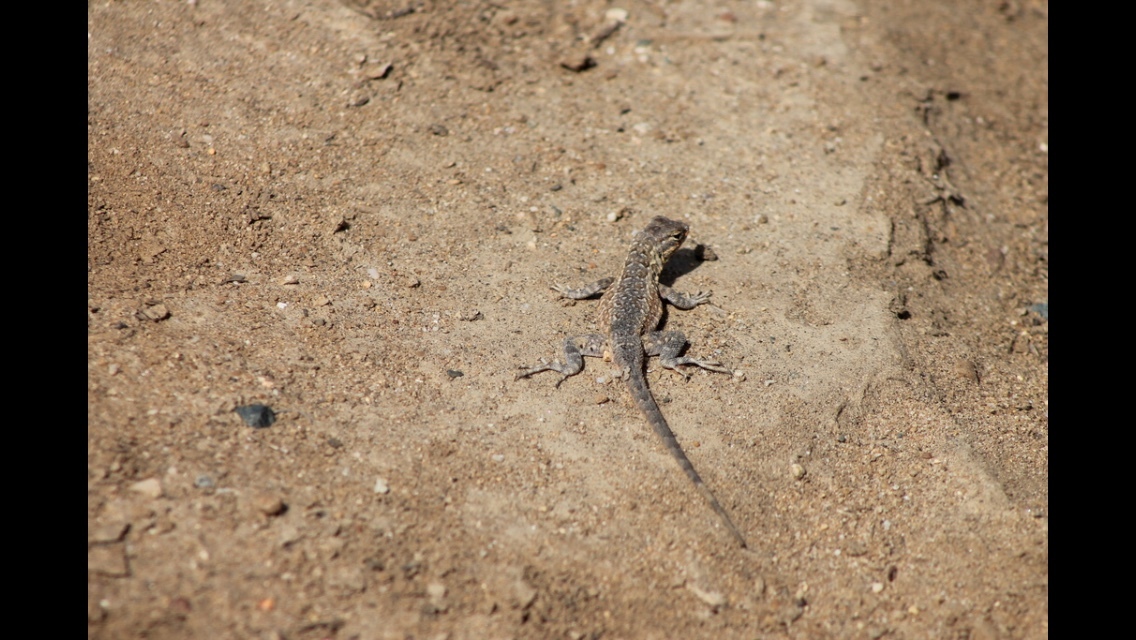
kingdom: Animalia
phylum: Chordata
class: Squamata
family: Phrynosomatidae
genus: Uta
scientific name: Uta stansburiana
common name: Side-blotched lizard
